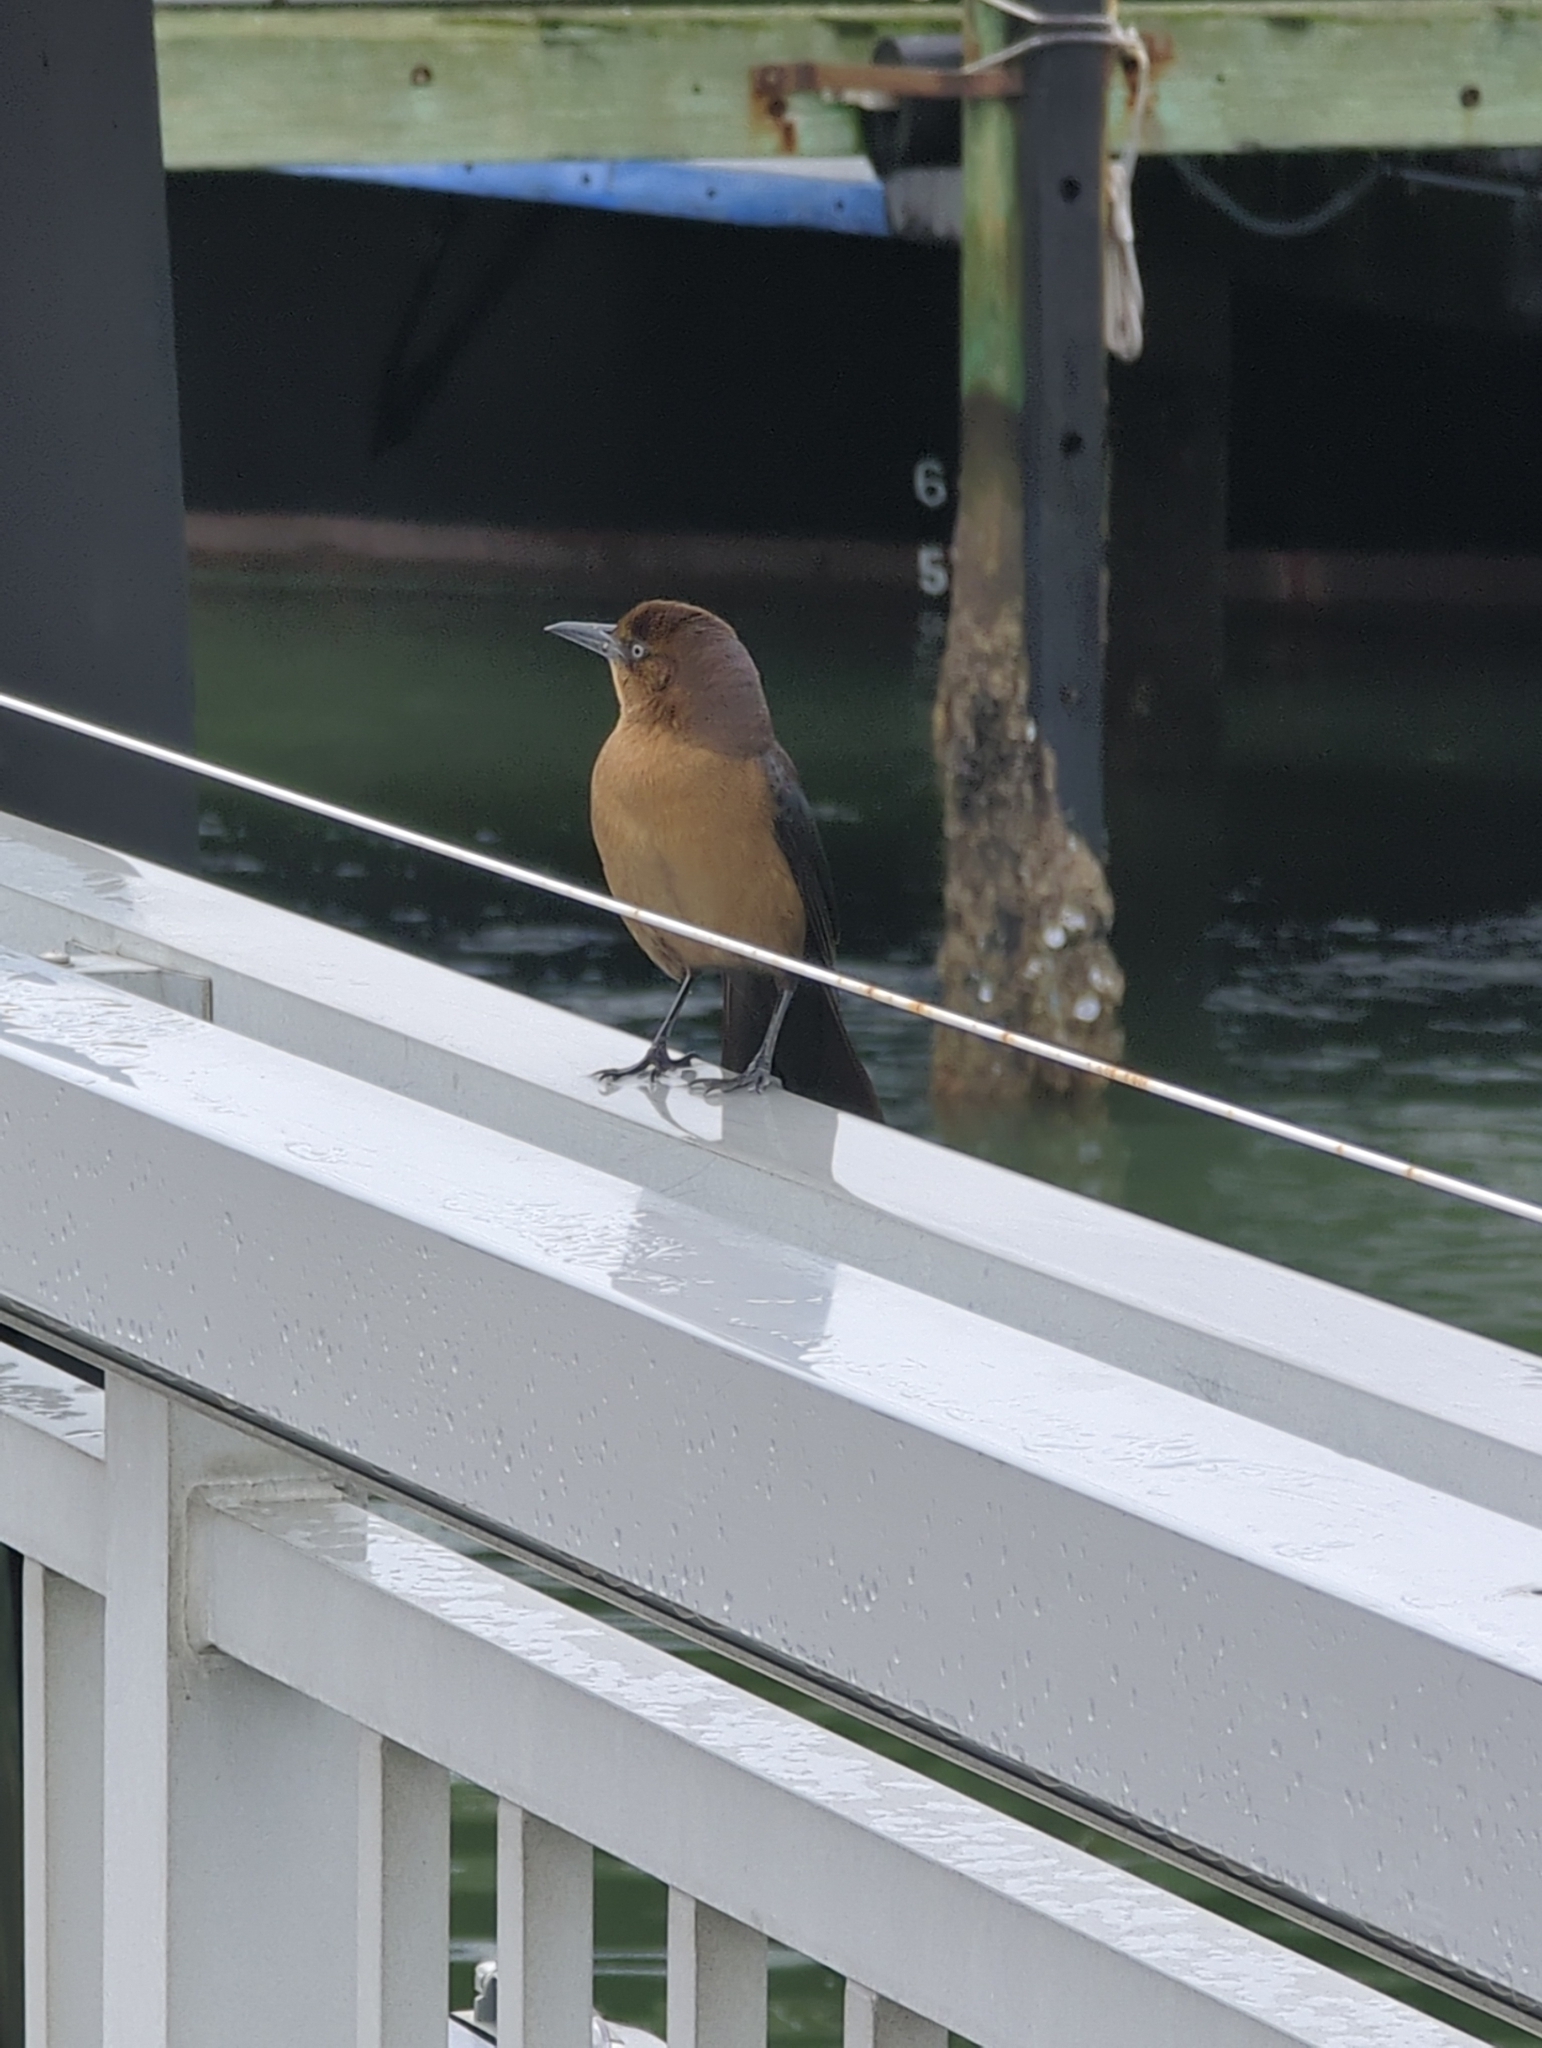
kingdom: Animalia
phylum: Chordata
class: Aves
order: Passeriformes
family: Icteridae
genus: Quiscalus
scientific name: Quiscalus major
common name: Boat-tailed grackle
